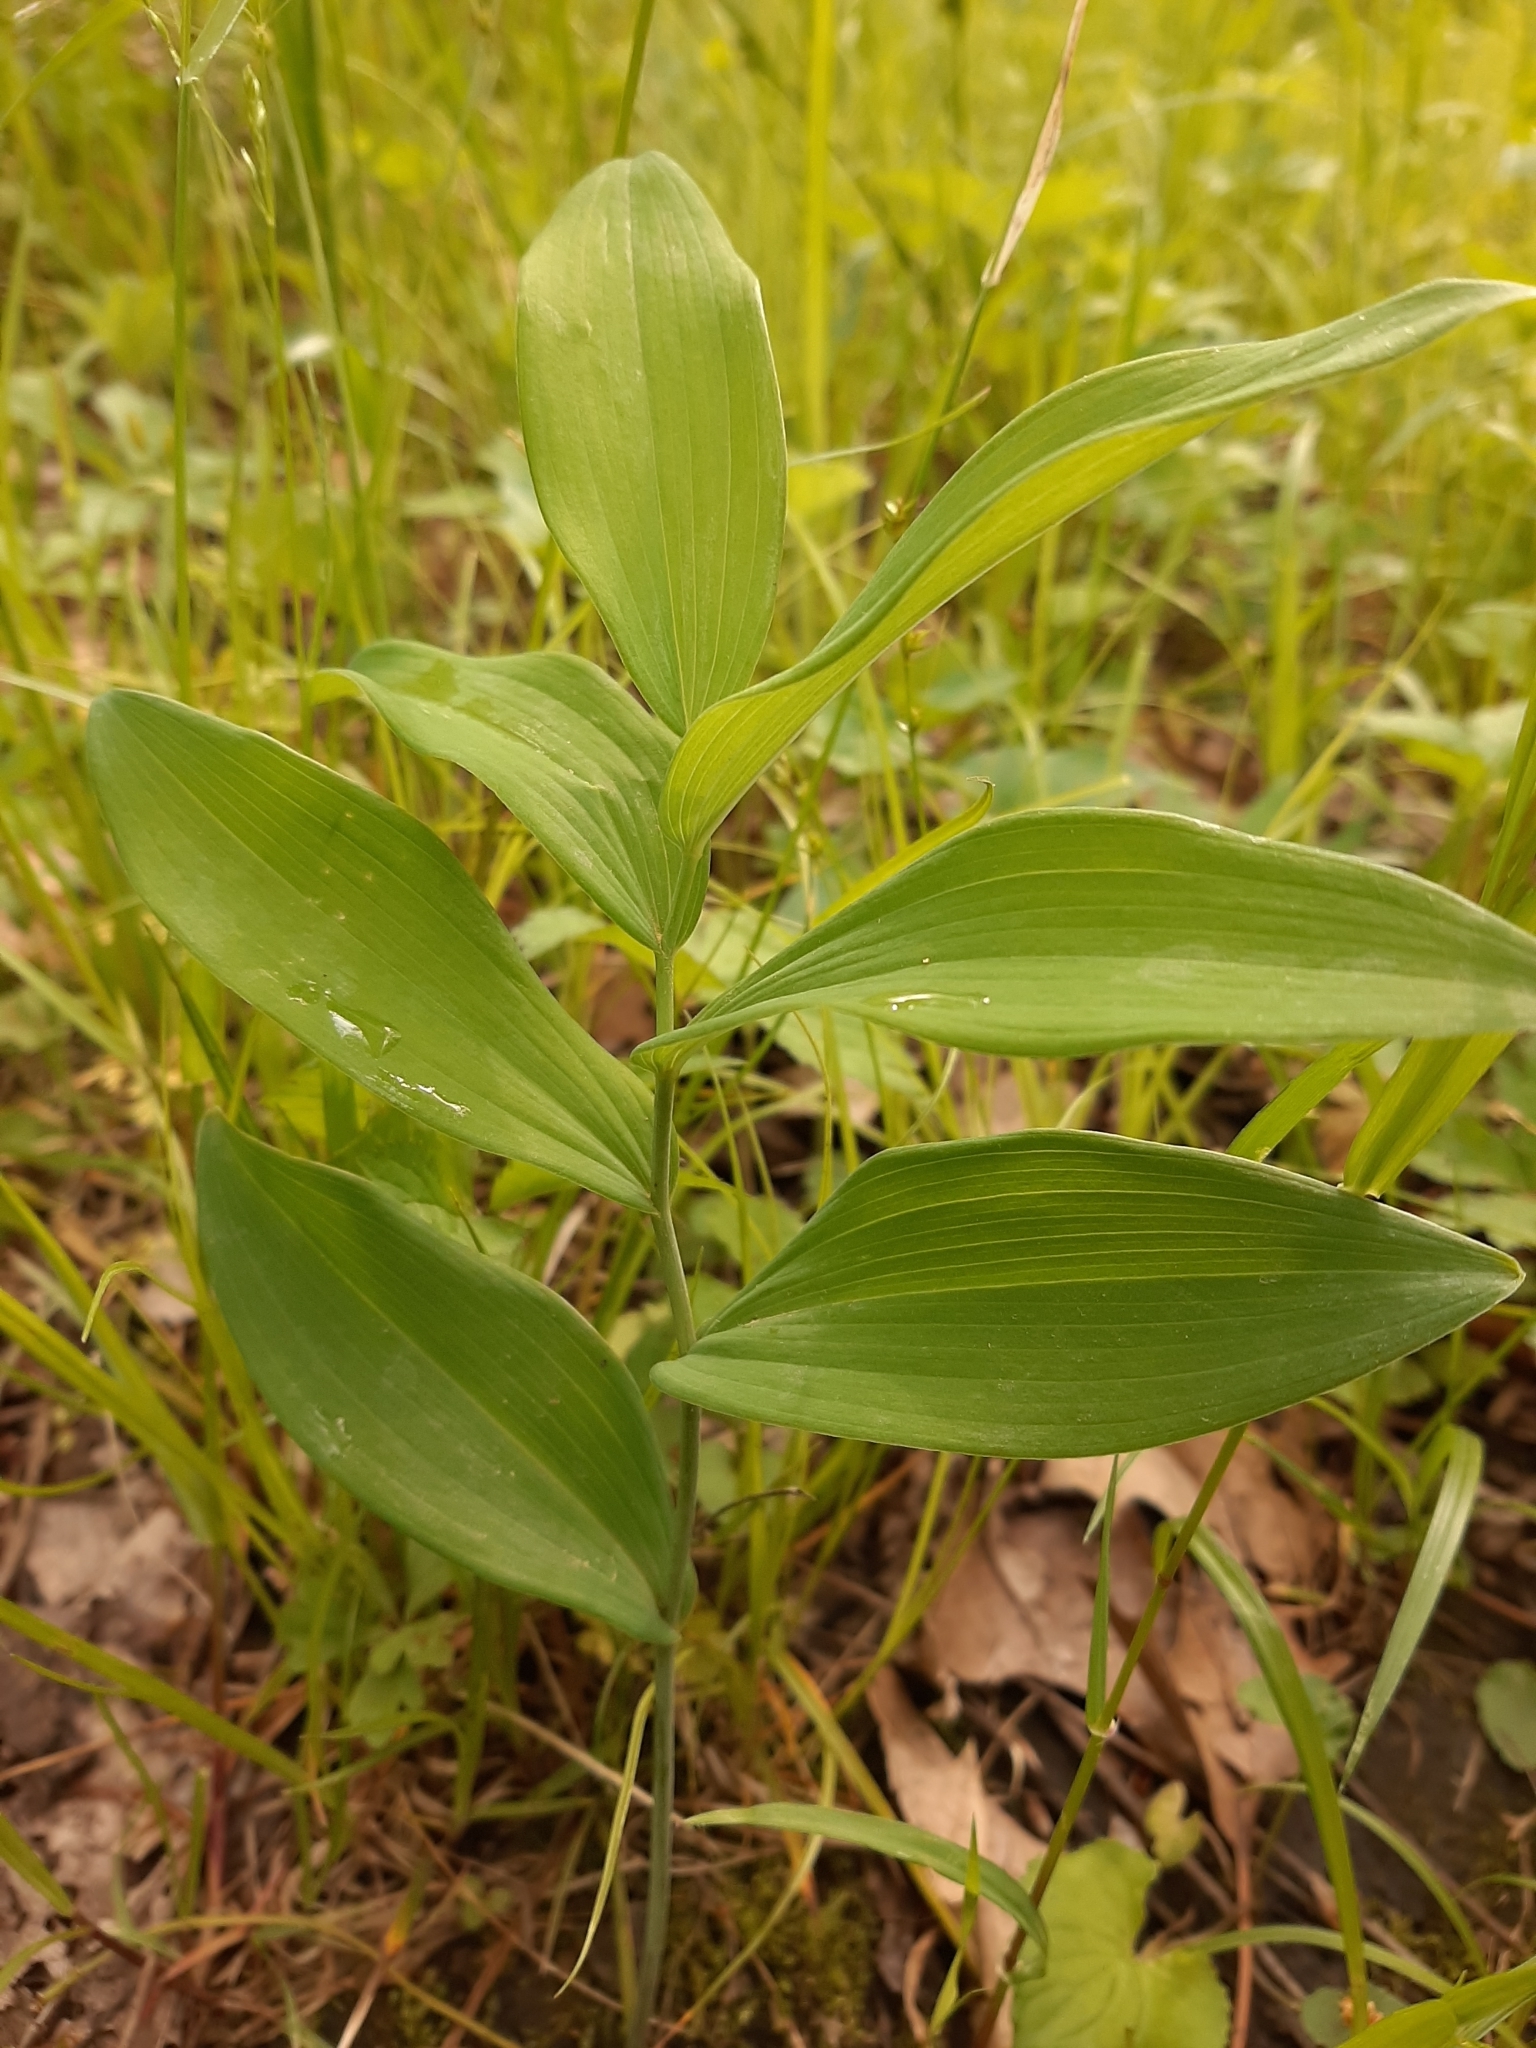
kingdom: Plantae
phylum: Tracheophyta
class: Liliopsida
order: Asparagales
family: Asparagaceae
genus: Polygonatum
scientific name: Polygonatum biflorum
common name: American solomon's-seal
